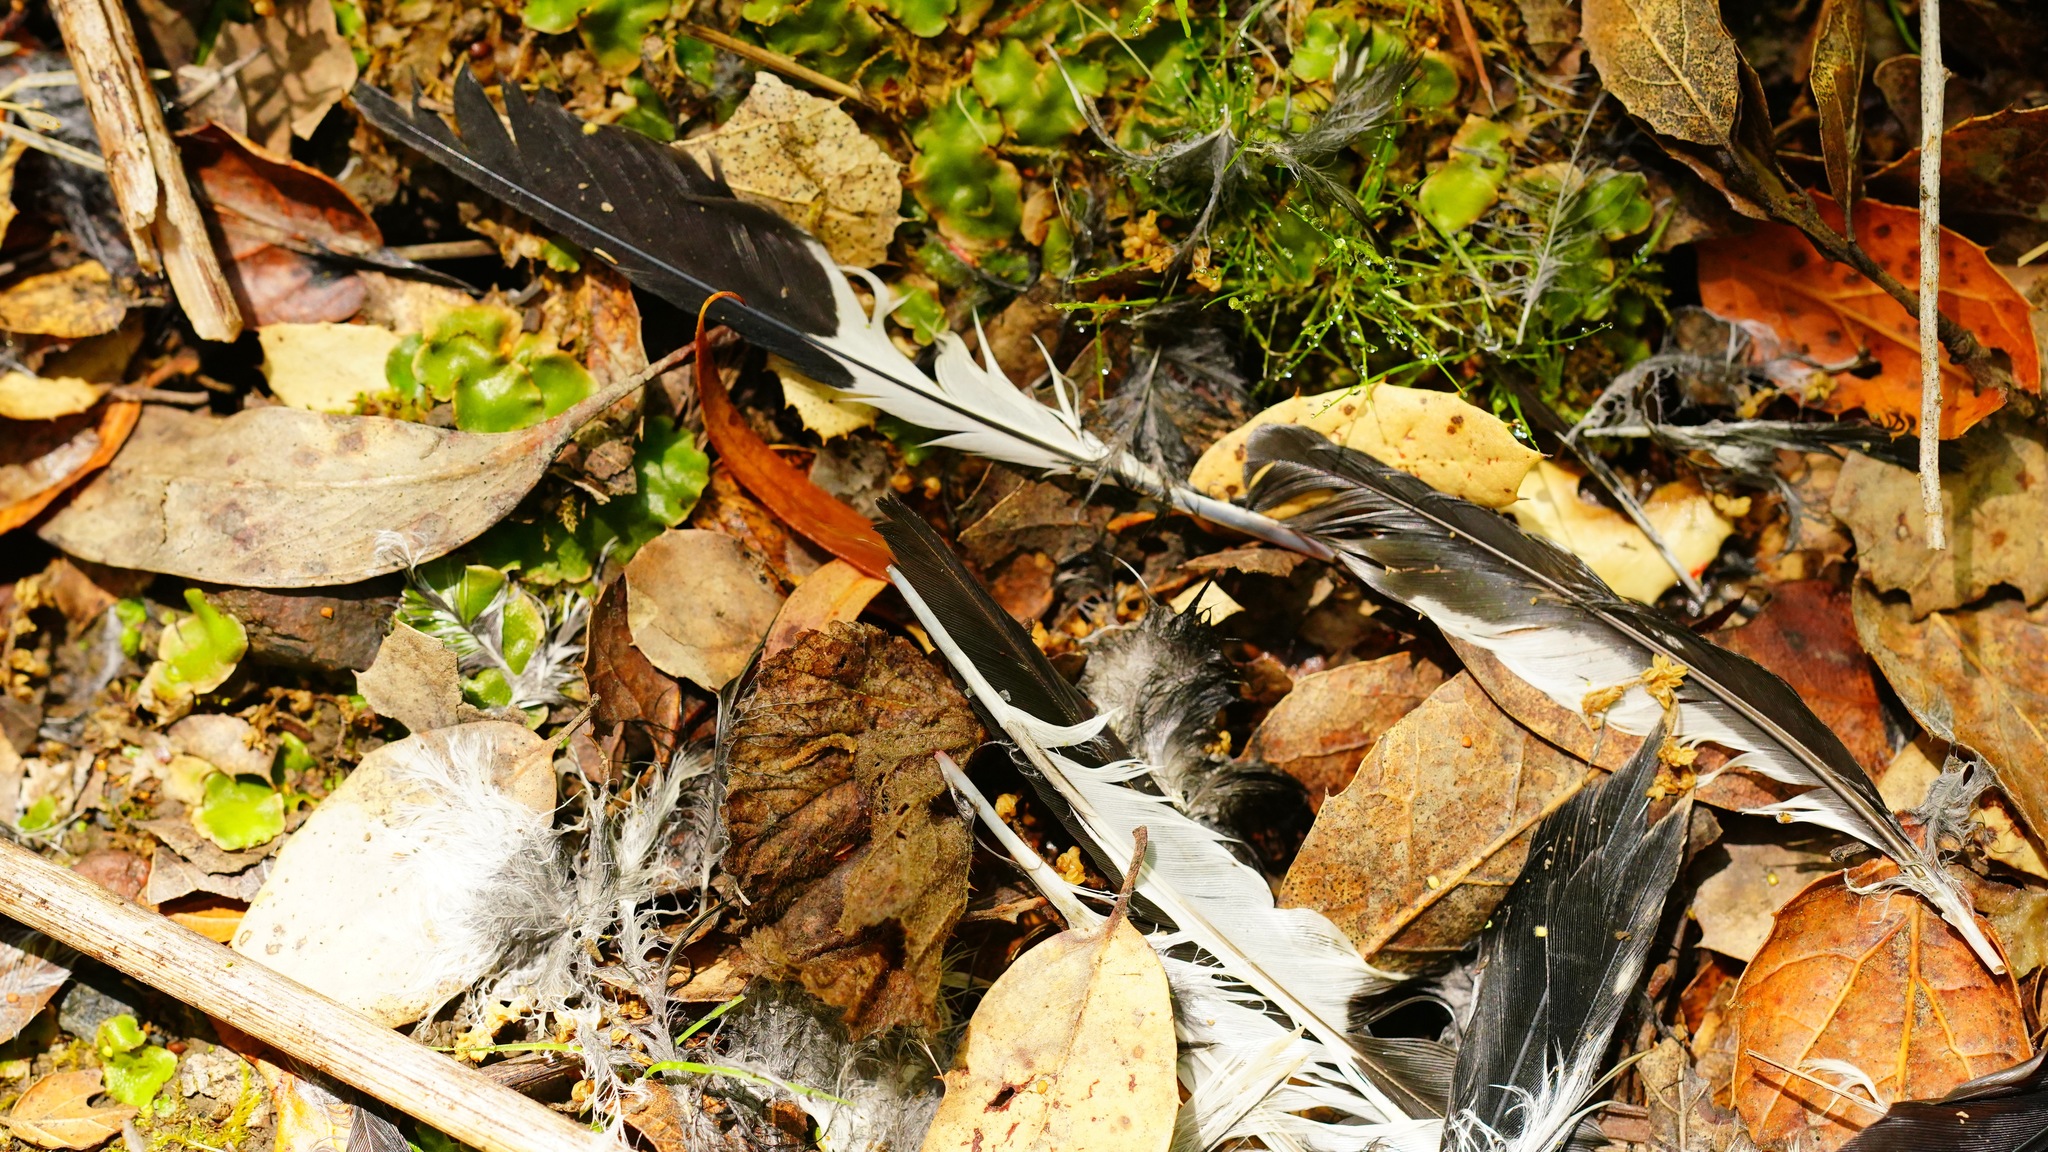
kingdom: Animalia
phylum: Chordata
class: Aves
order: Piciformes
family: Picidae
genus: Melanerpes
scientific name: Melanerpes formicivorus
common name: Acorn woodpecker
